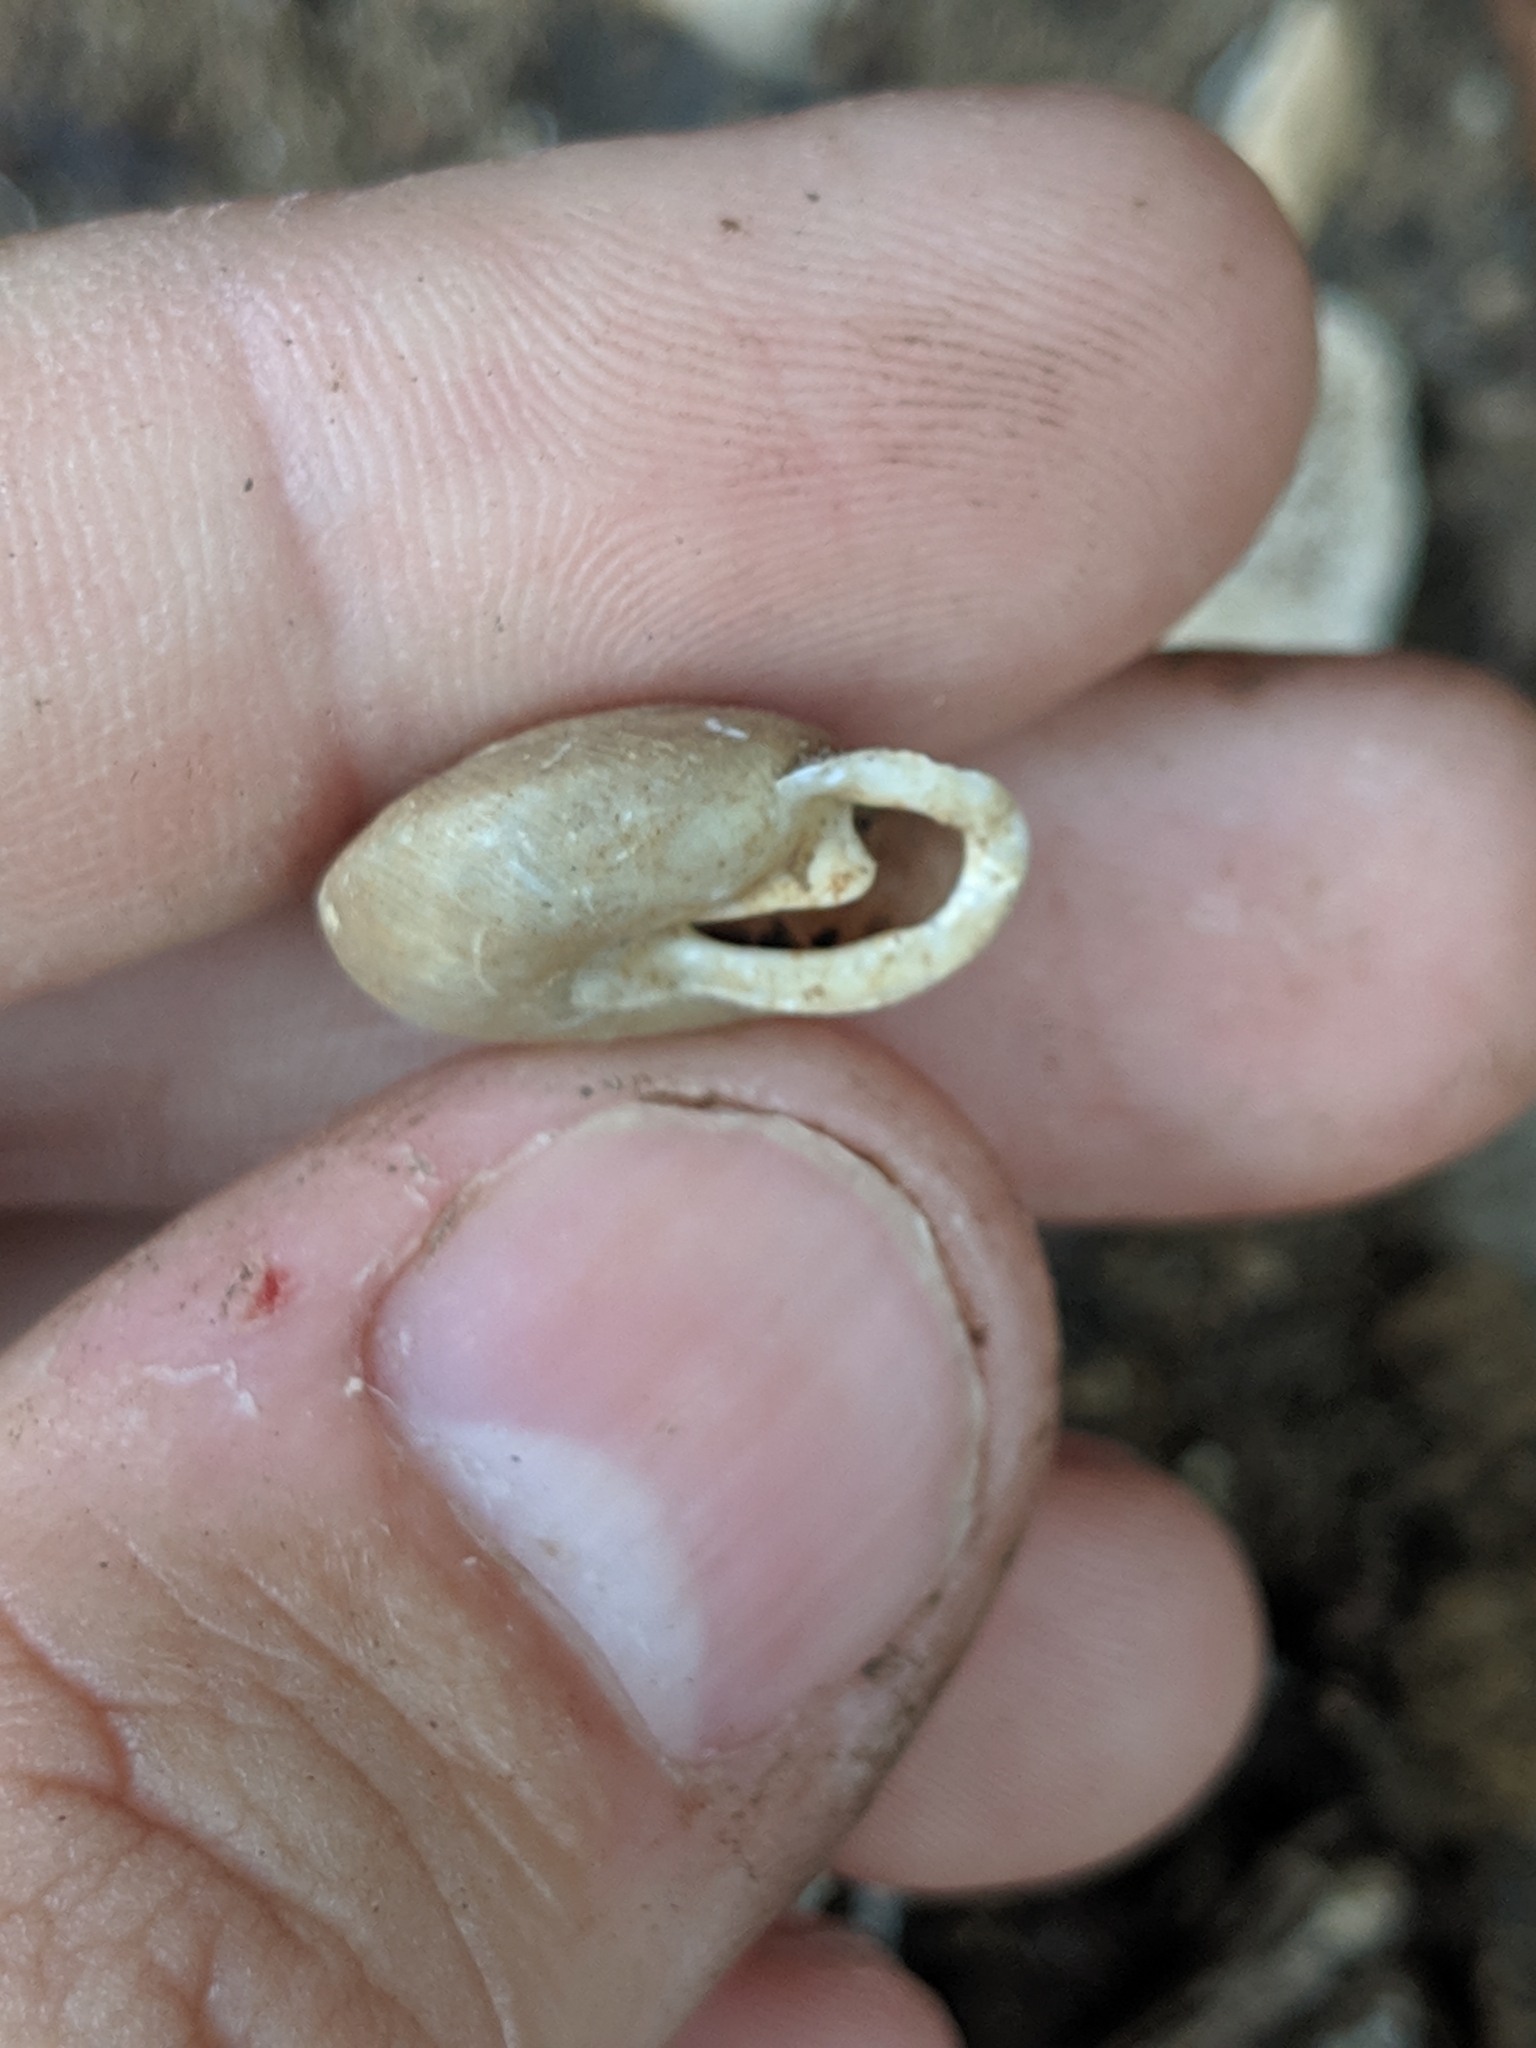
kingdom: Animalia
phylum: Mollusca
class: Gastropoda
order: Stylommatophora
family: Polygyridae
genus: Patera
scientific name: Patera appressa
